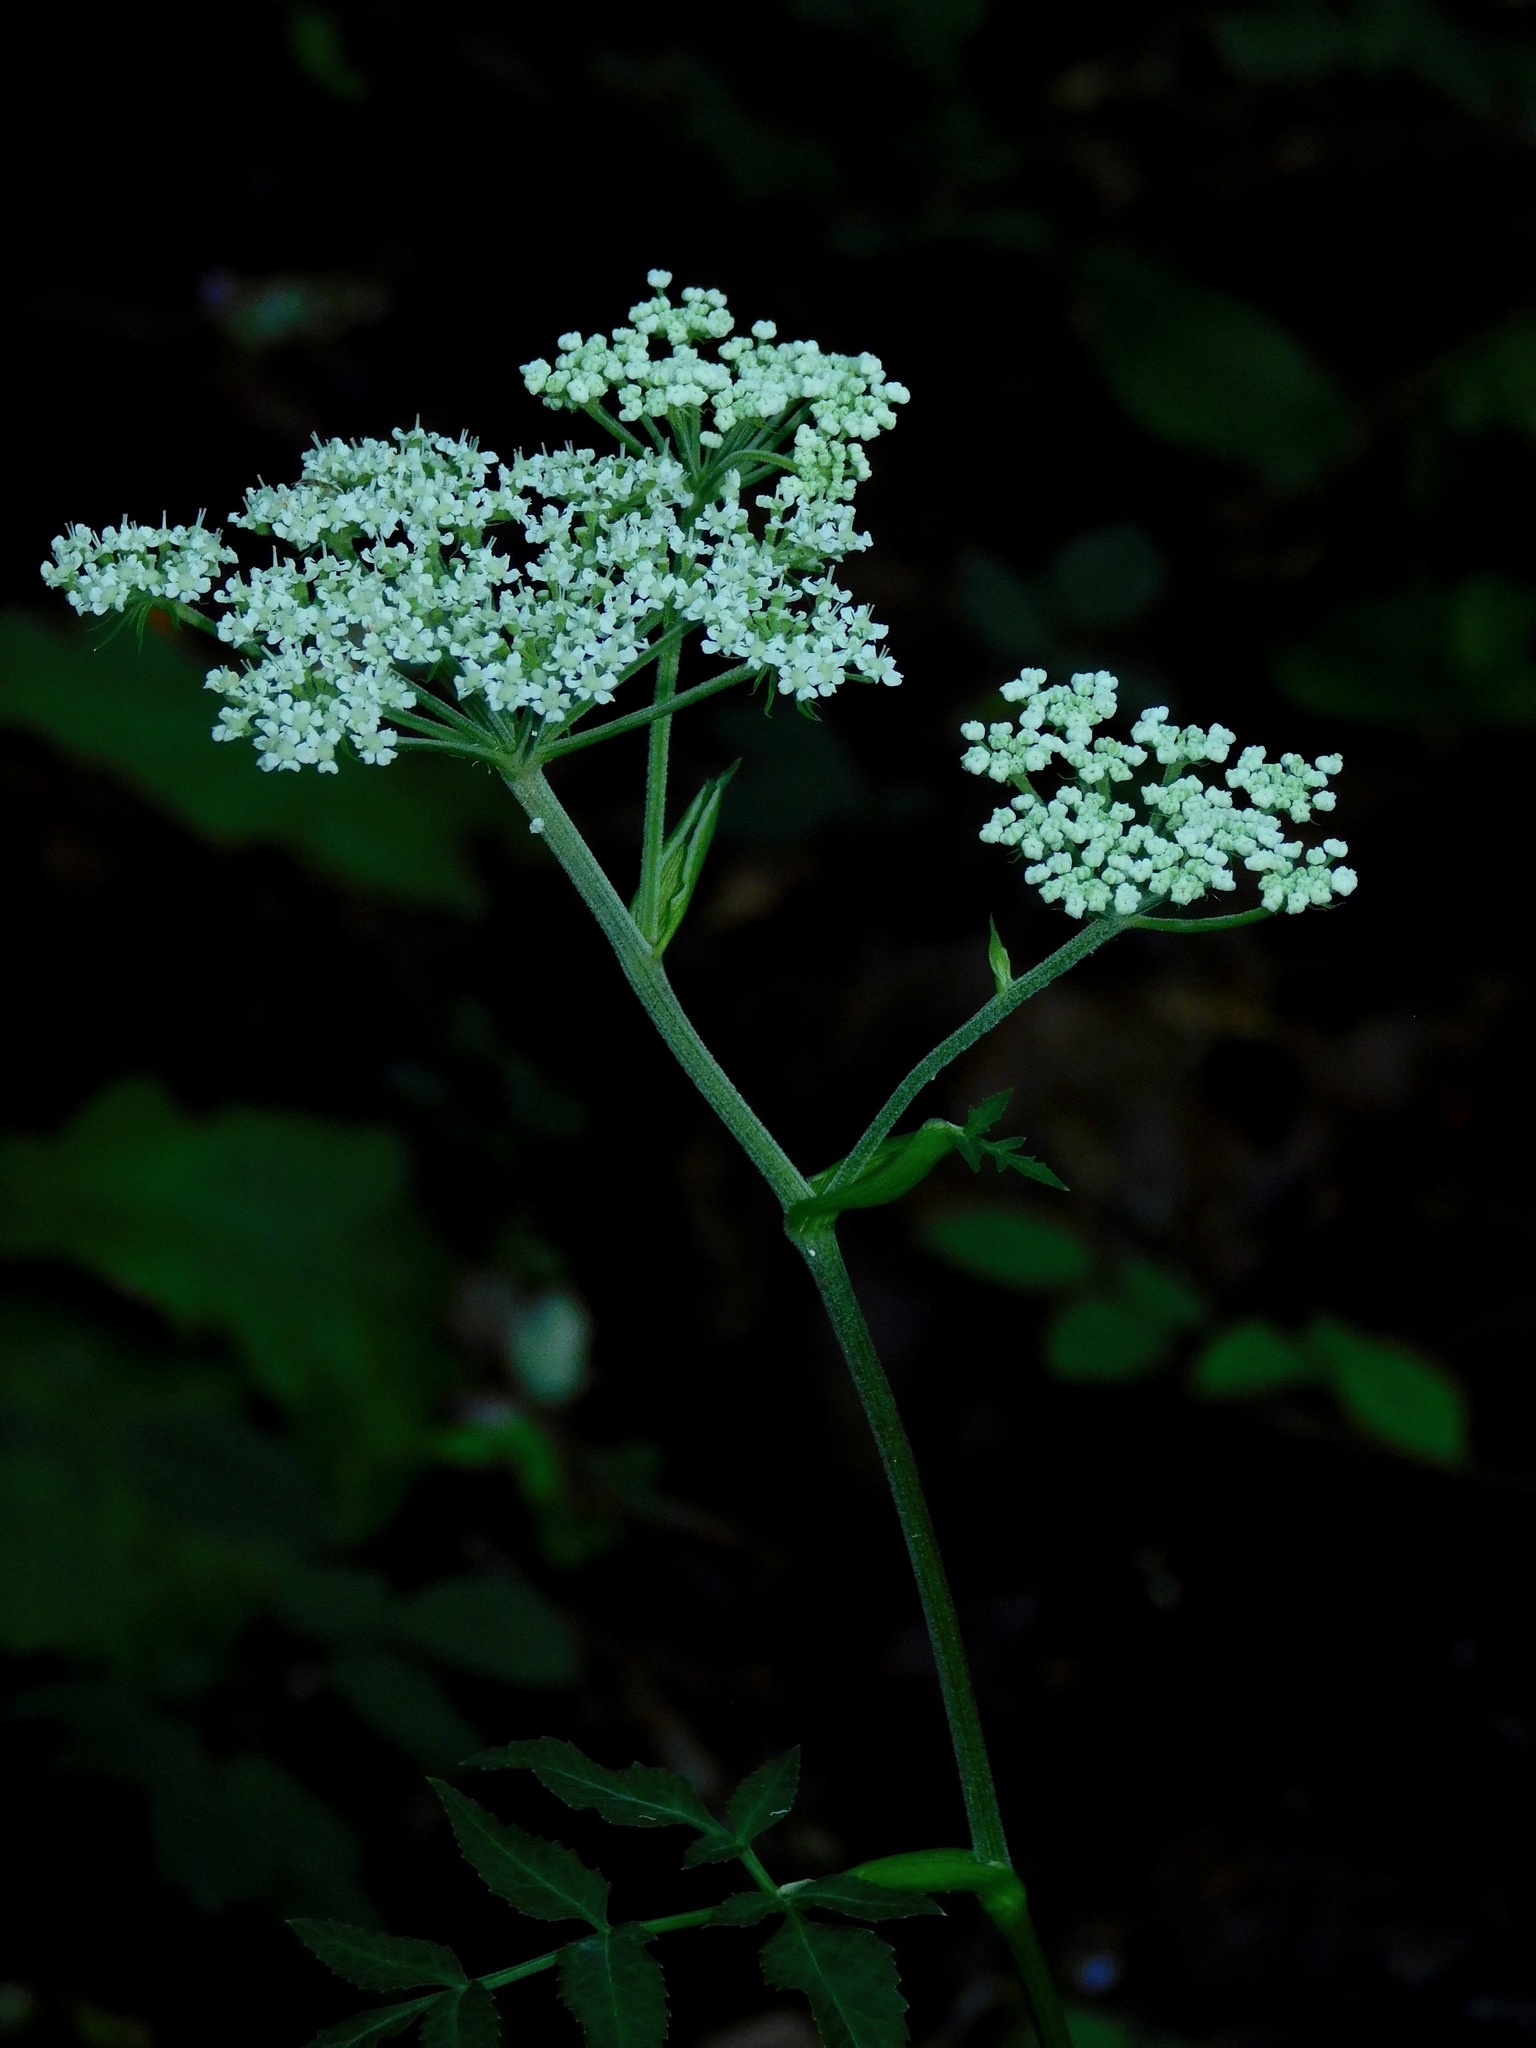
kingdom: Plantae
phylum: Tracheophyta
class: Magnoliopsida
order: Apiales
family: Apiaceae
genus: Angelica
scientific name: Angelica venenosa
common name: Hairy angelica
